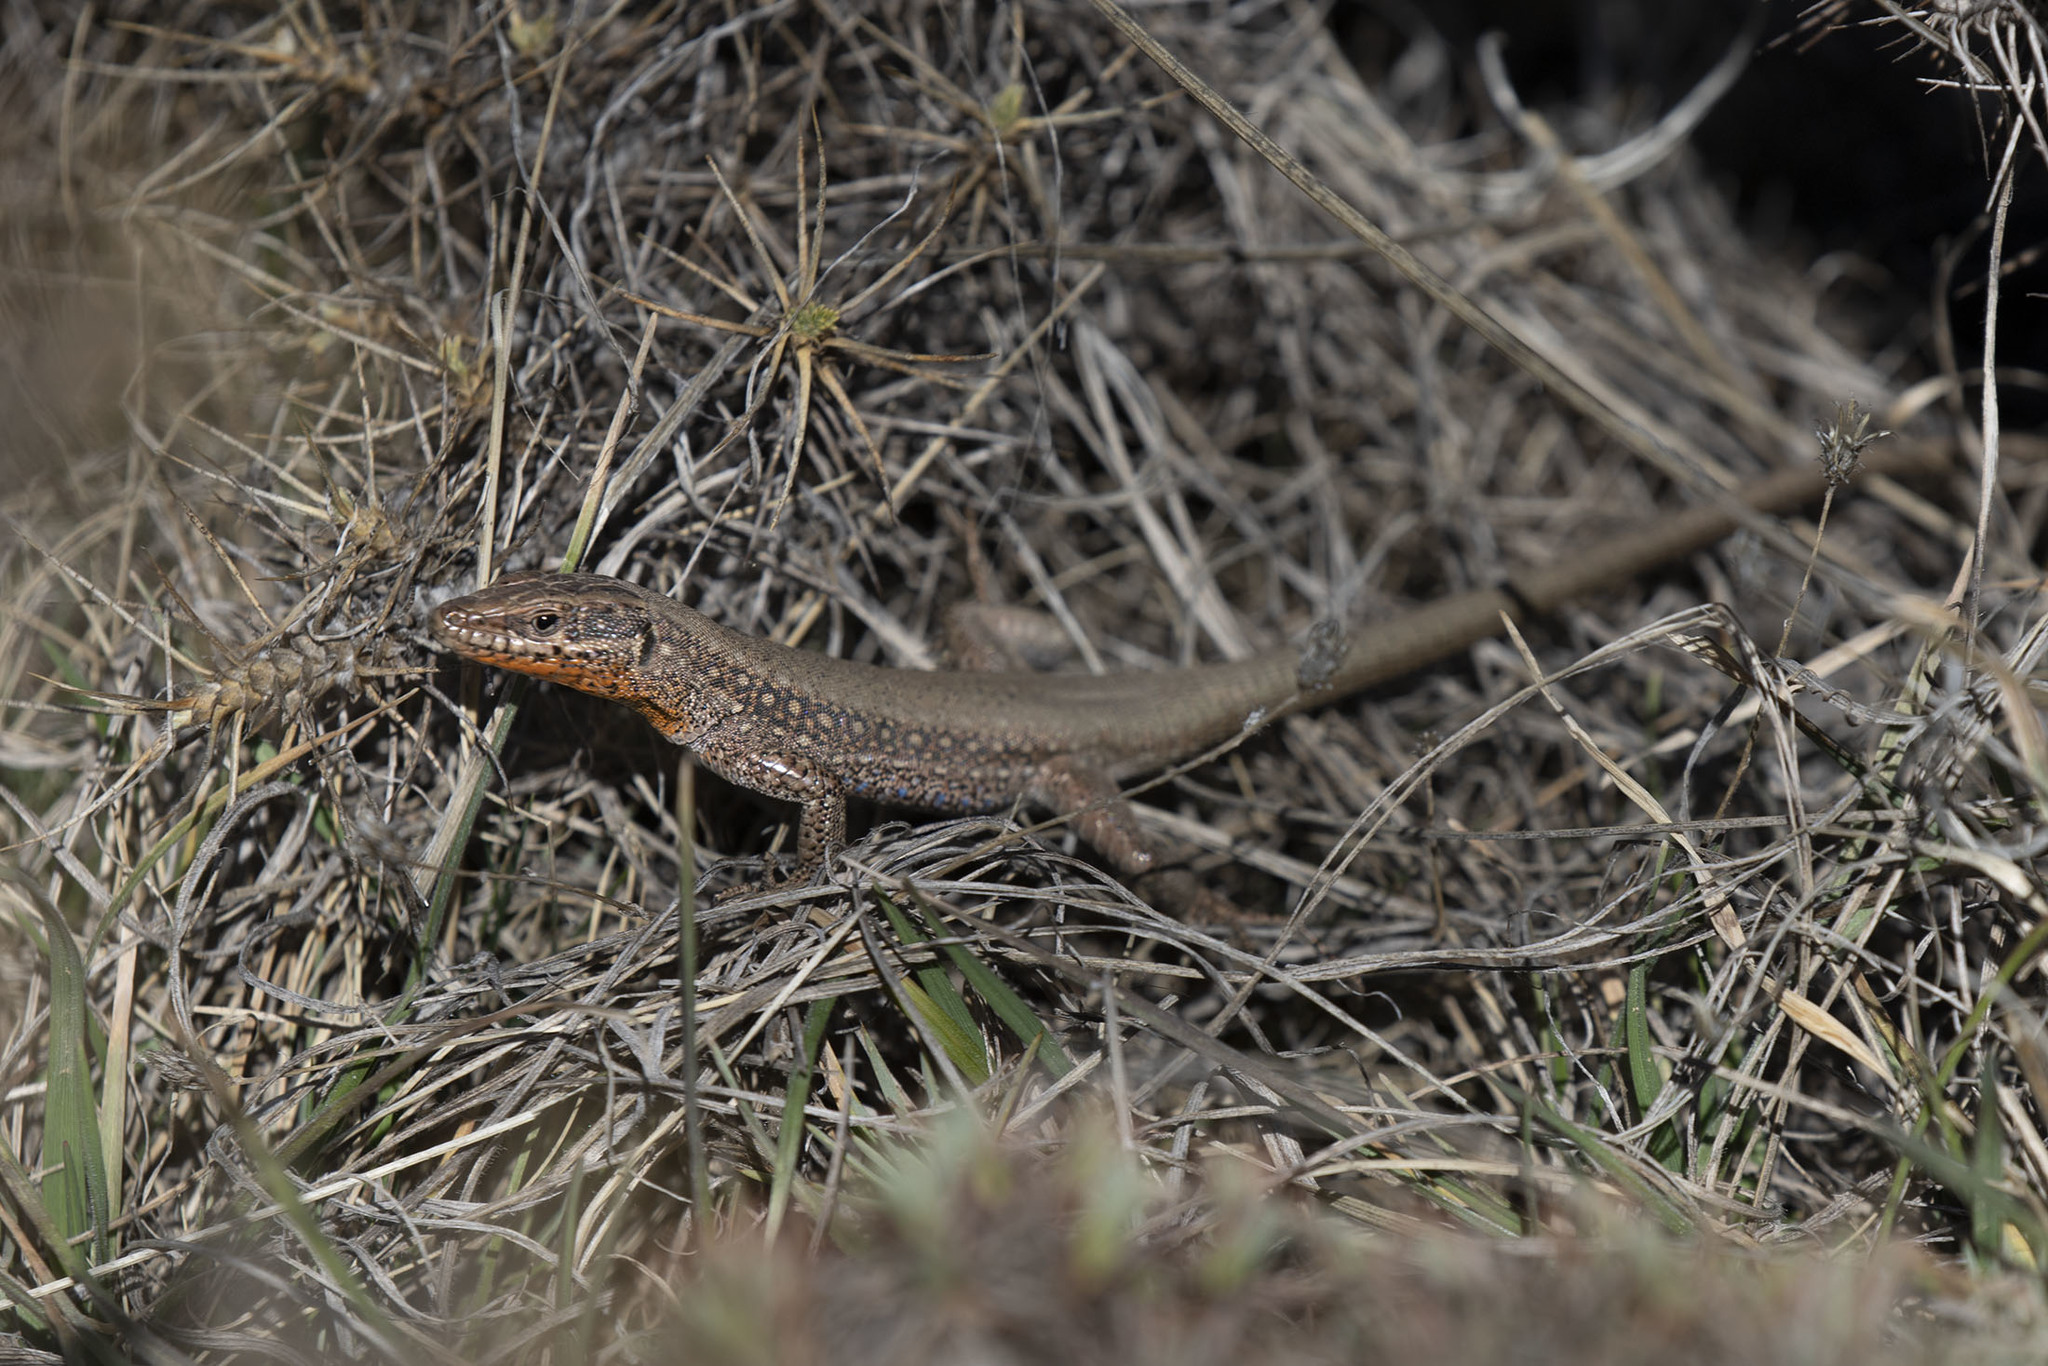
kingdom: Animalia
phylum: Chordata
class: Squamata
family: Lacertidae
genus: Anatololacerta
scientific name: Anatololacerta pelasgiana
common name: Pelasgian rock lizard
